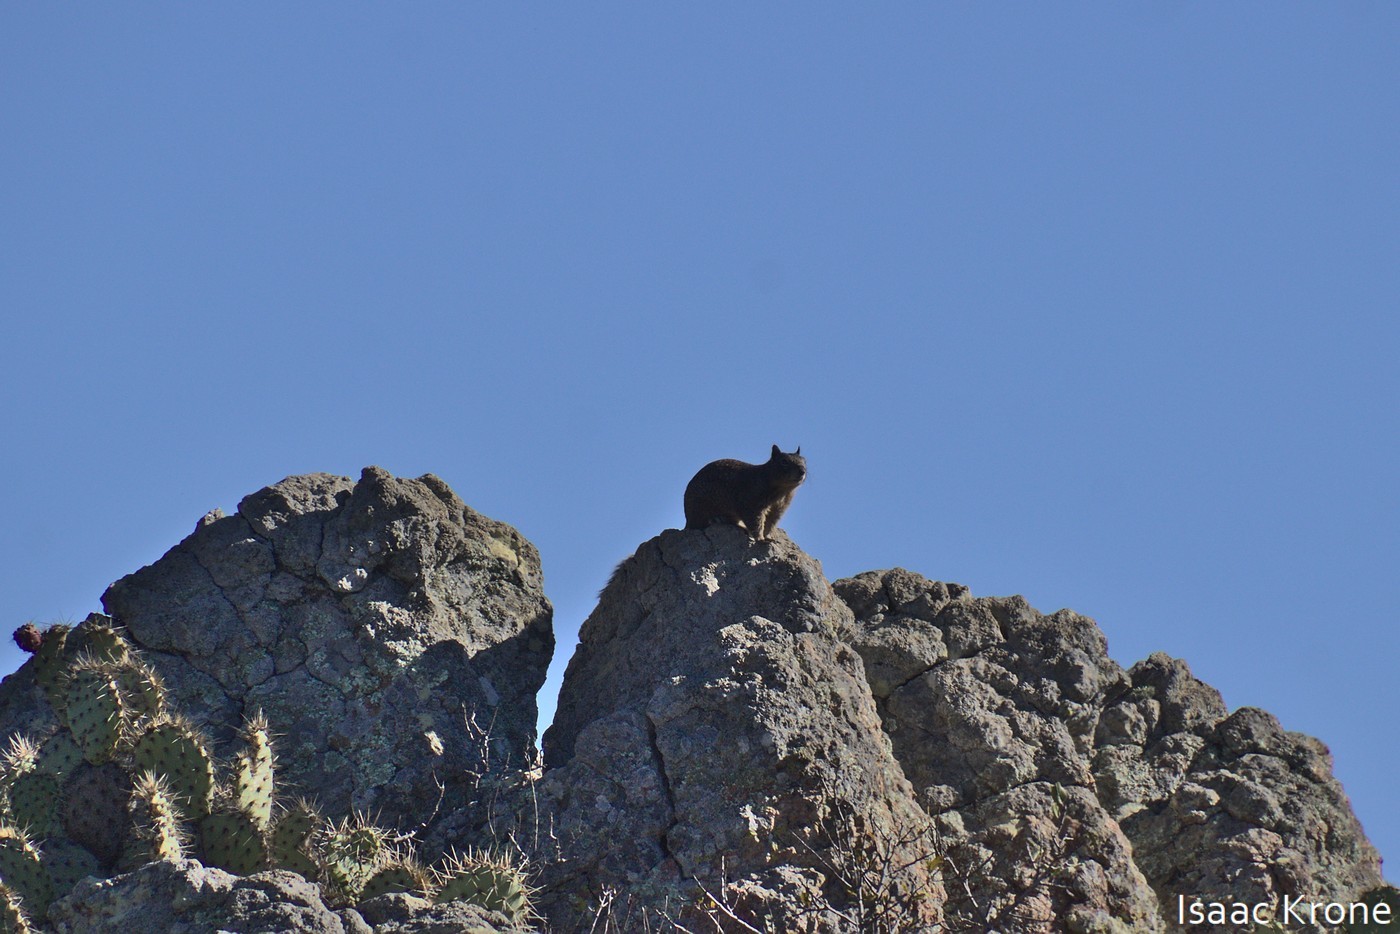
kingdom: Animalia
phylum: Chordata
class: Mammalia
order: Rodentia
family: Sciuridae
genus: Otospermophilus
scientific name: Otospermophilus beecheyi
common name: California ground squirrel
